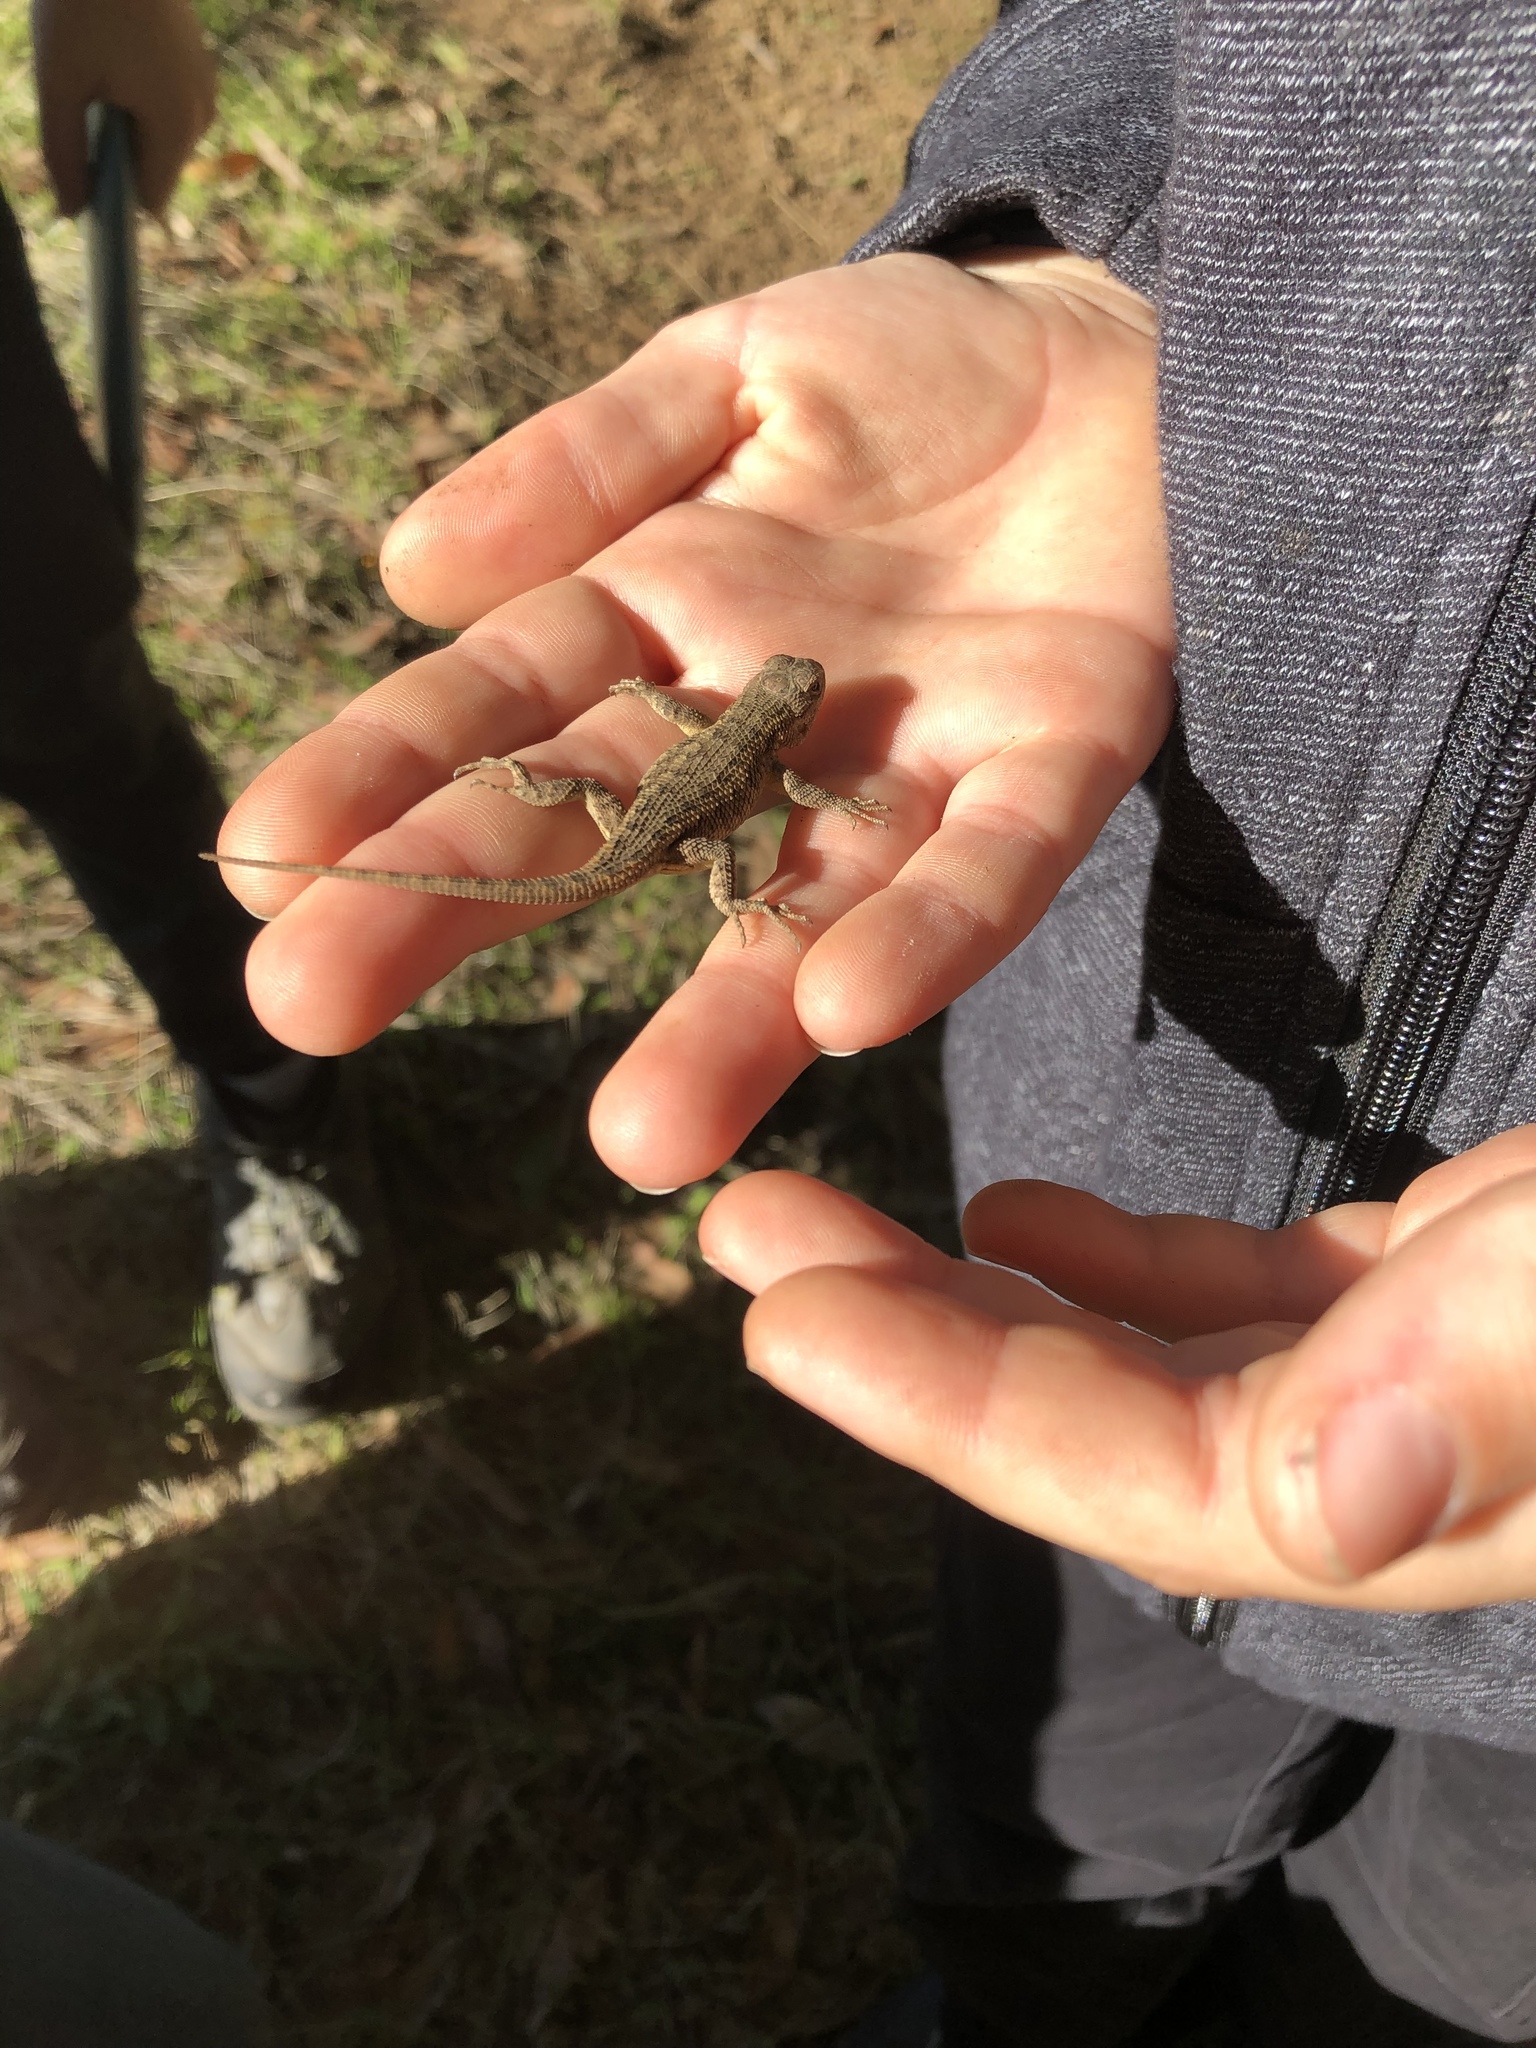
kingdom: Animalia
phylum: Chordata
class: Squamata
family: Phrynosomatidae
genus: Sceloporus
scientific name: Sceloporus occidentalis
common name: Western fence lizard
